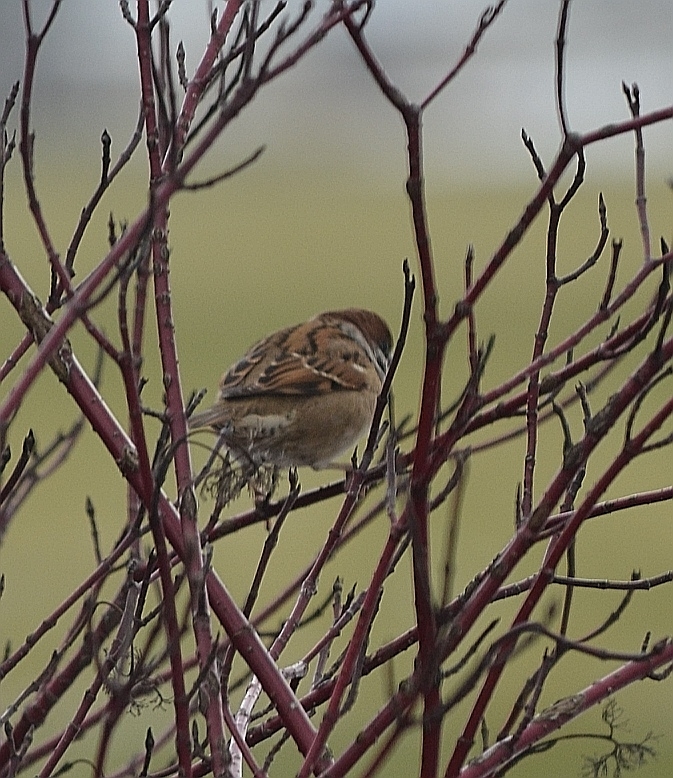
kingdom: Animalia
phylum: Chordata
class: Aves
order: Passeriformes
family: Passeridae
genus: Passer
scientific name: Passer montanus
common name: Eurasian tree sparrow
